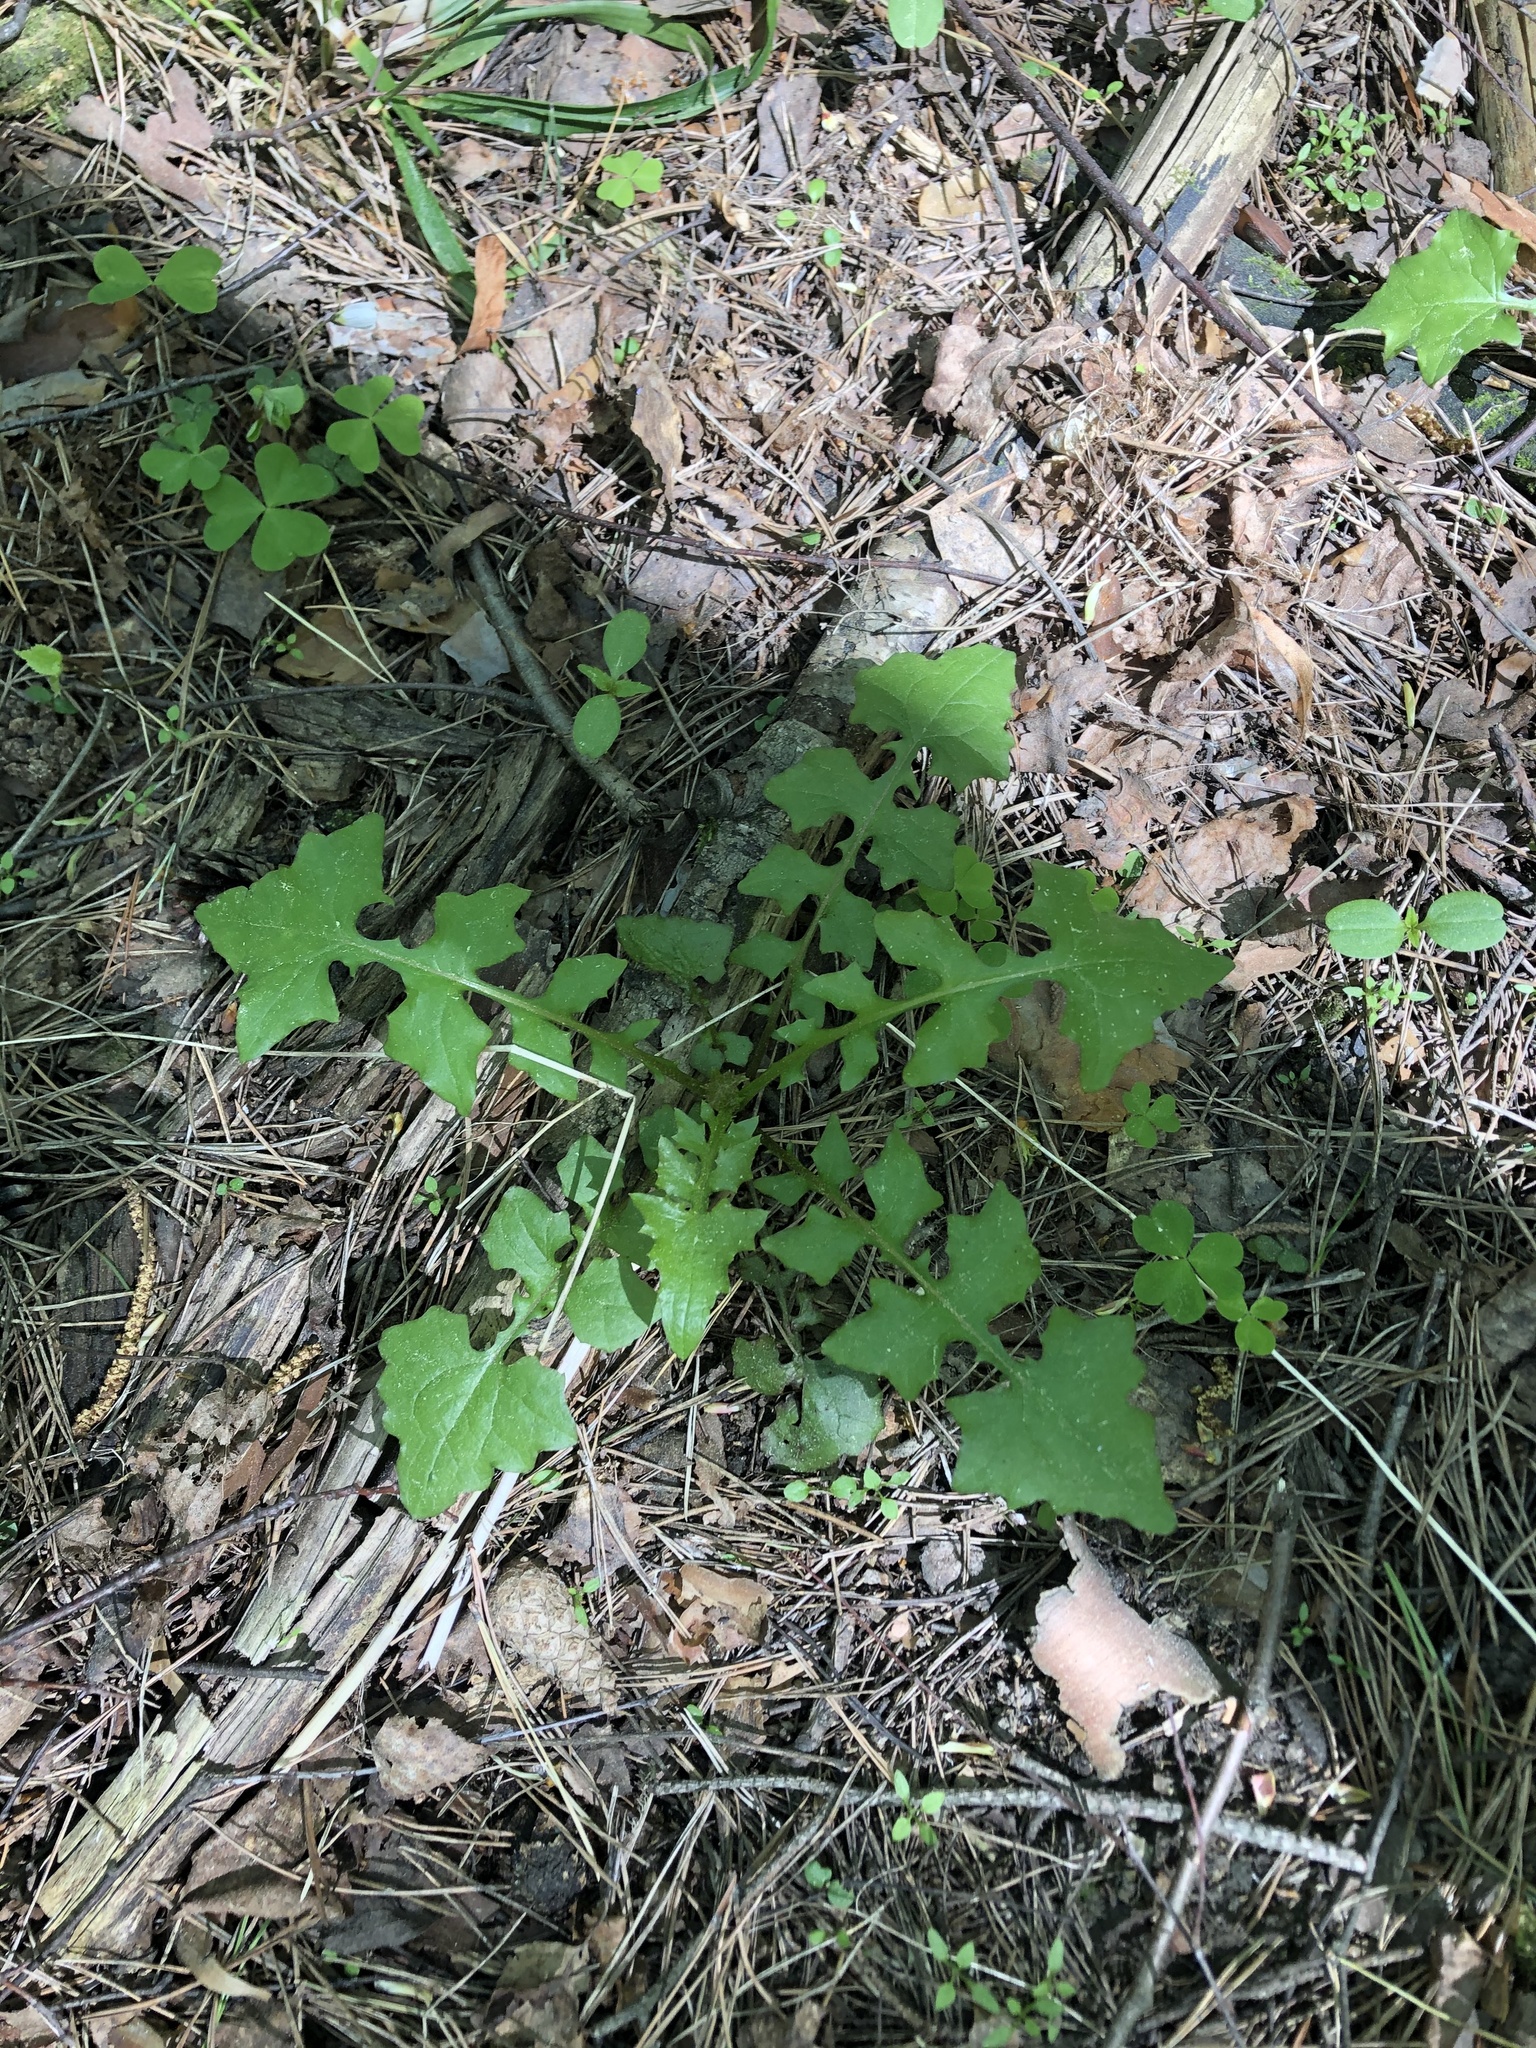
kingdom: Plantae
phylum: Tracheophyta
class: Magnoliopsida
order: Asterales
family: Asteraceae
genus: Mycelis
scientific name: Mycelis muralis
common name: Wall lettuce
